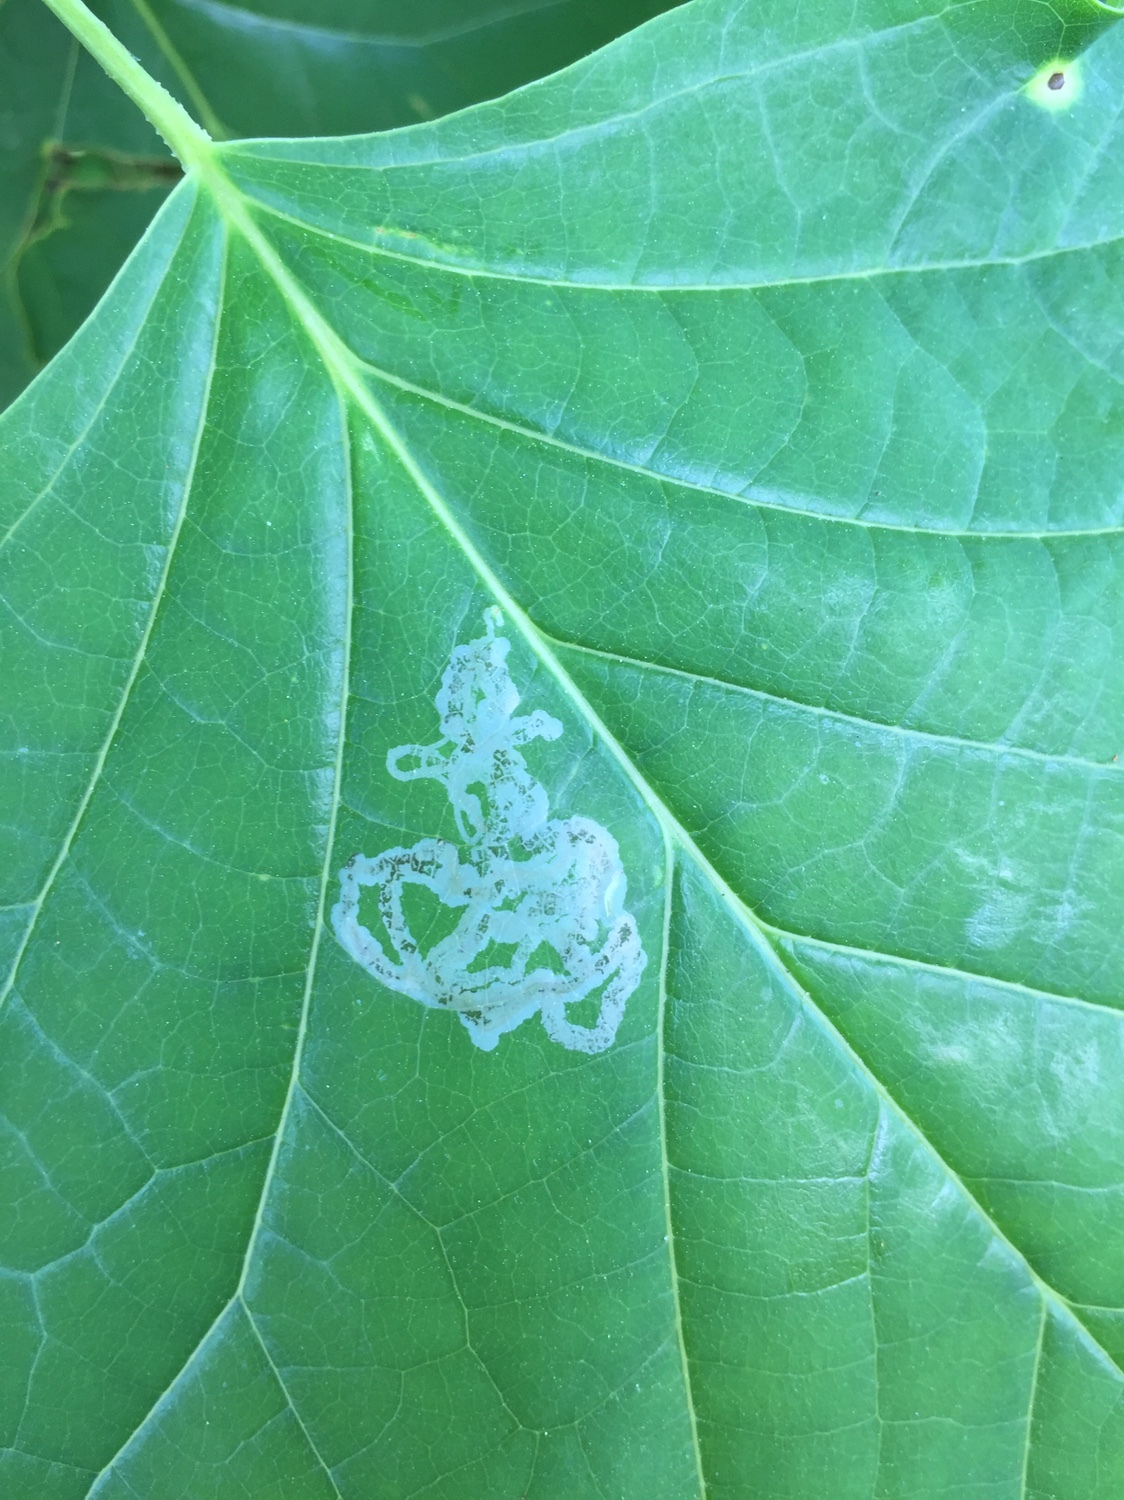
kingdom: Animalia
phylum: Arthropoda
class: Insecta
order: Lepidoptera
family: Gracillariidae
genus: Phyllocnistis
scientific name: Phyllocnistis liriodendronella
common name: Tulip tree leaf miner
